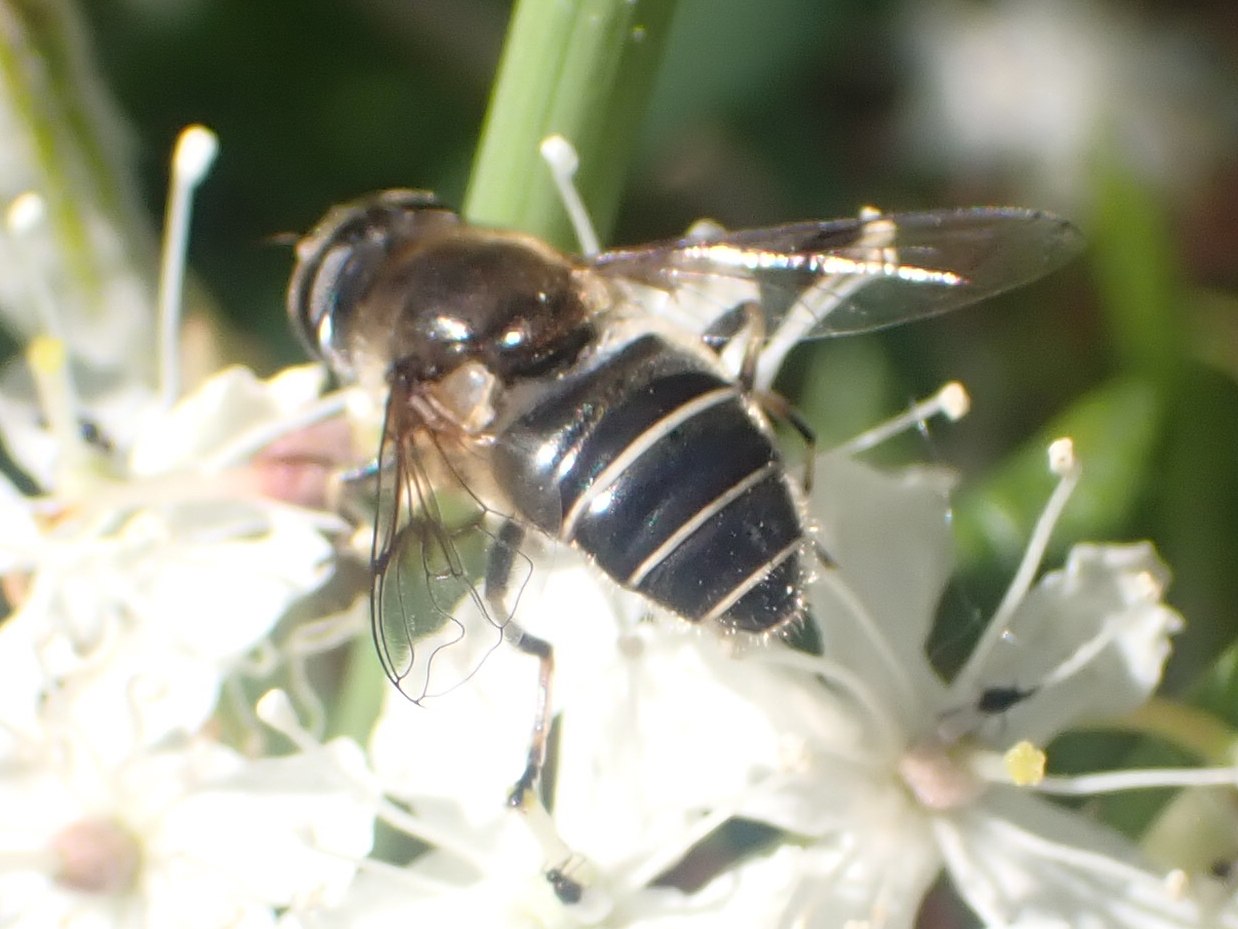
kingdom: Animalia
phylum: Arthropoda
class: Insecta
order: Diptera
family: Syrphidae
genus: Eristalis
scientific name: Eristalis obscura
